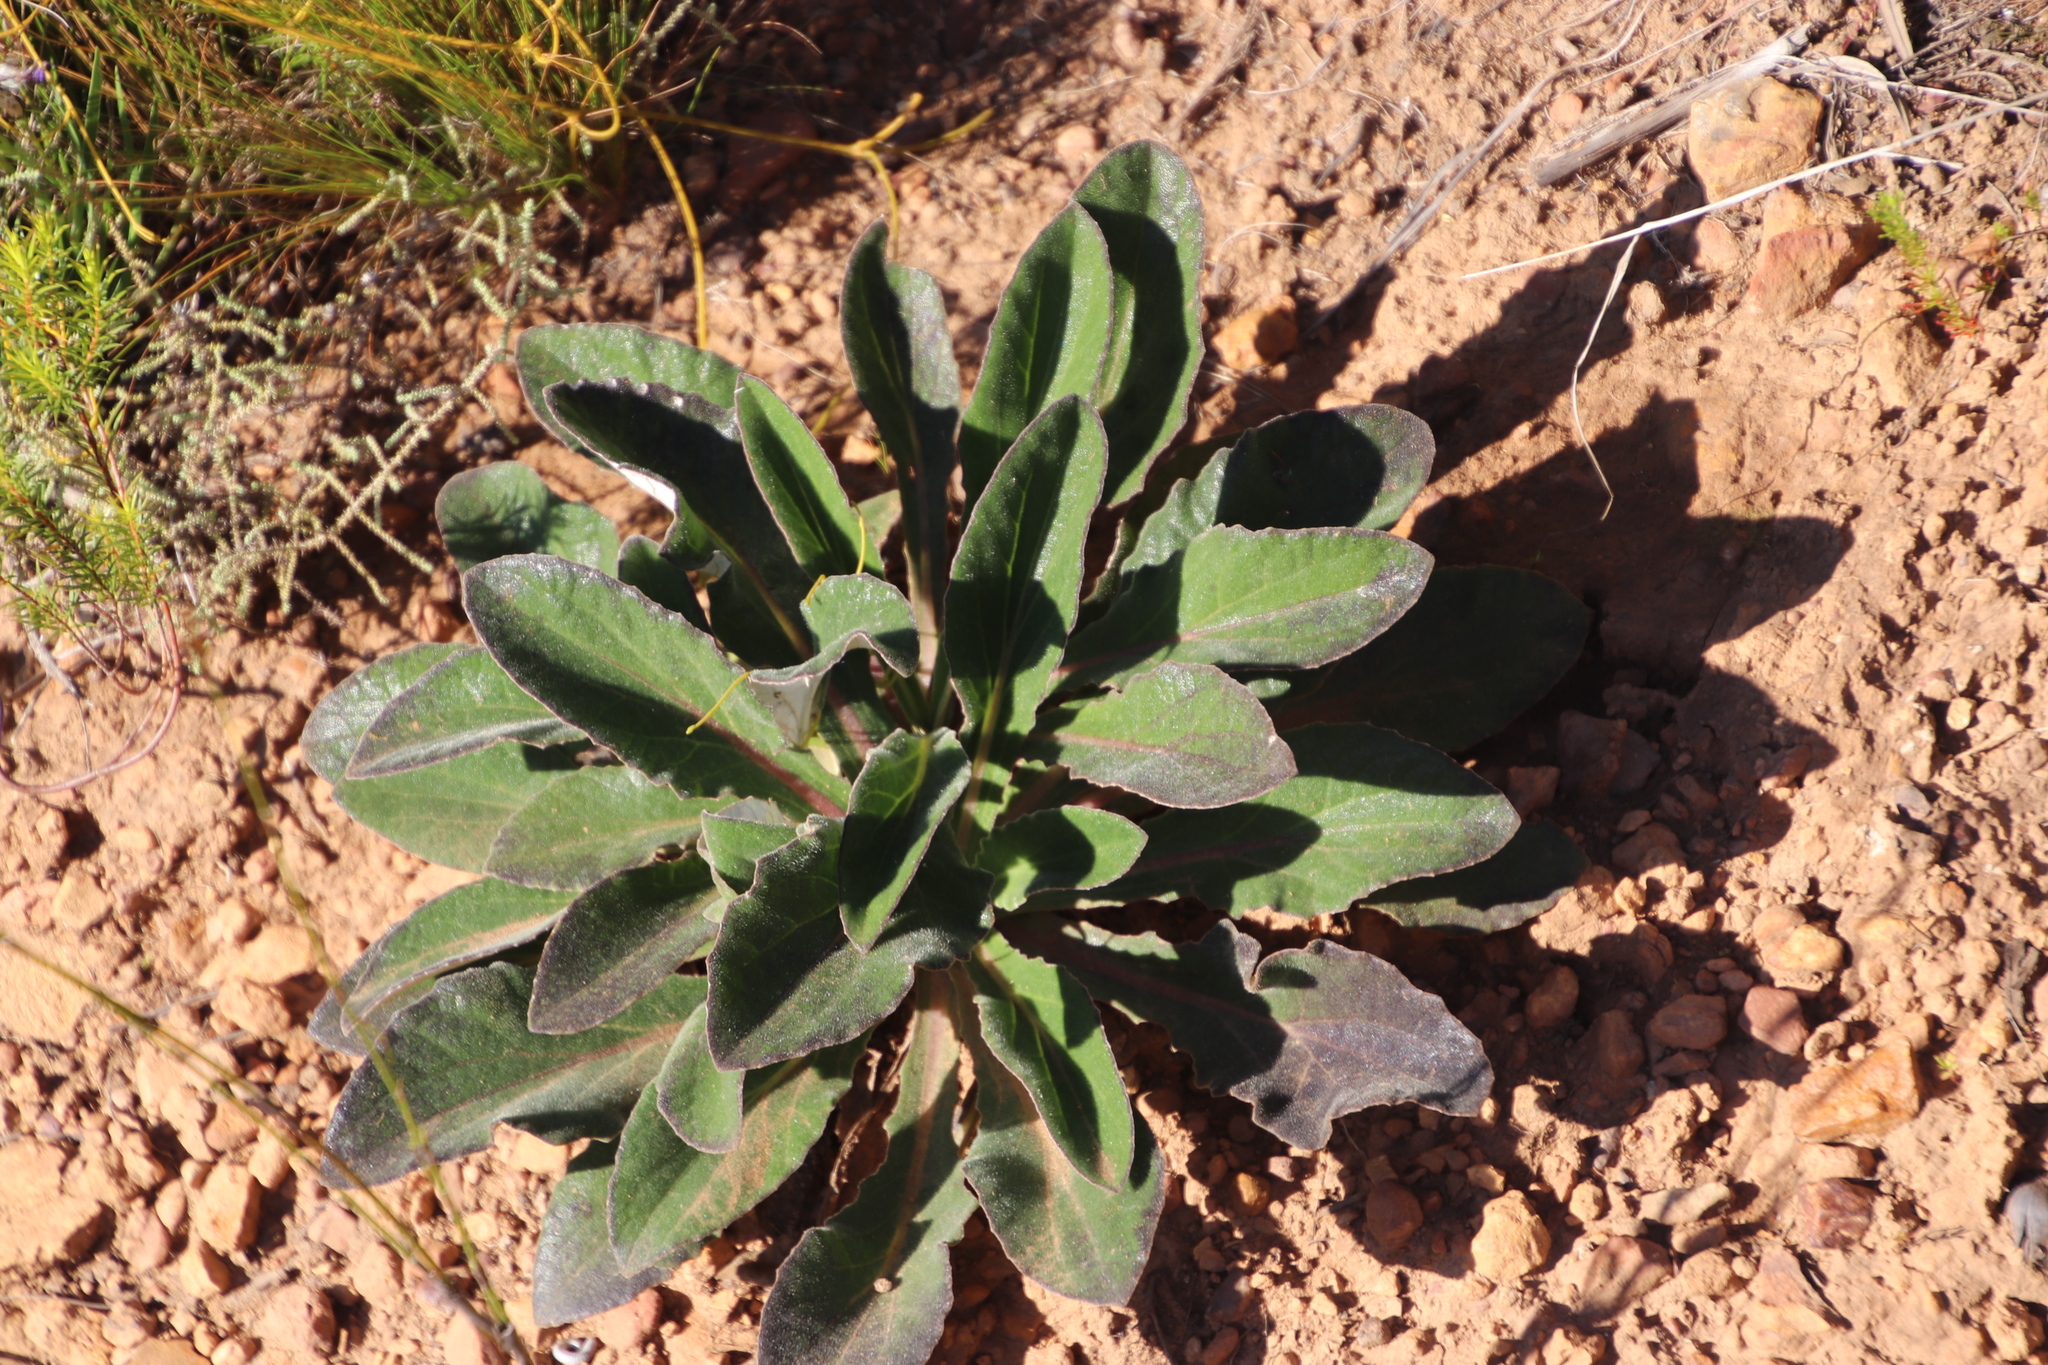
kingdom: Plantae
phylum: Tracheophyta
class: Magnoliopsida
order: Asterales
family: Asteraceae
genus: Haplocarpha
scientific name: Haplocarpha lanata
